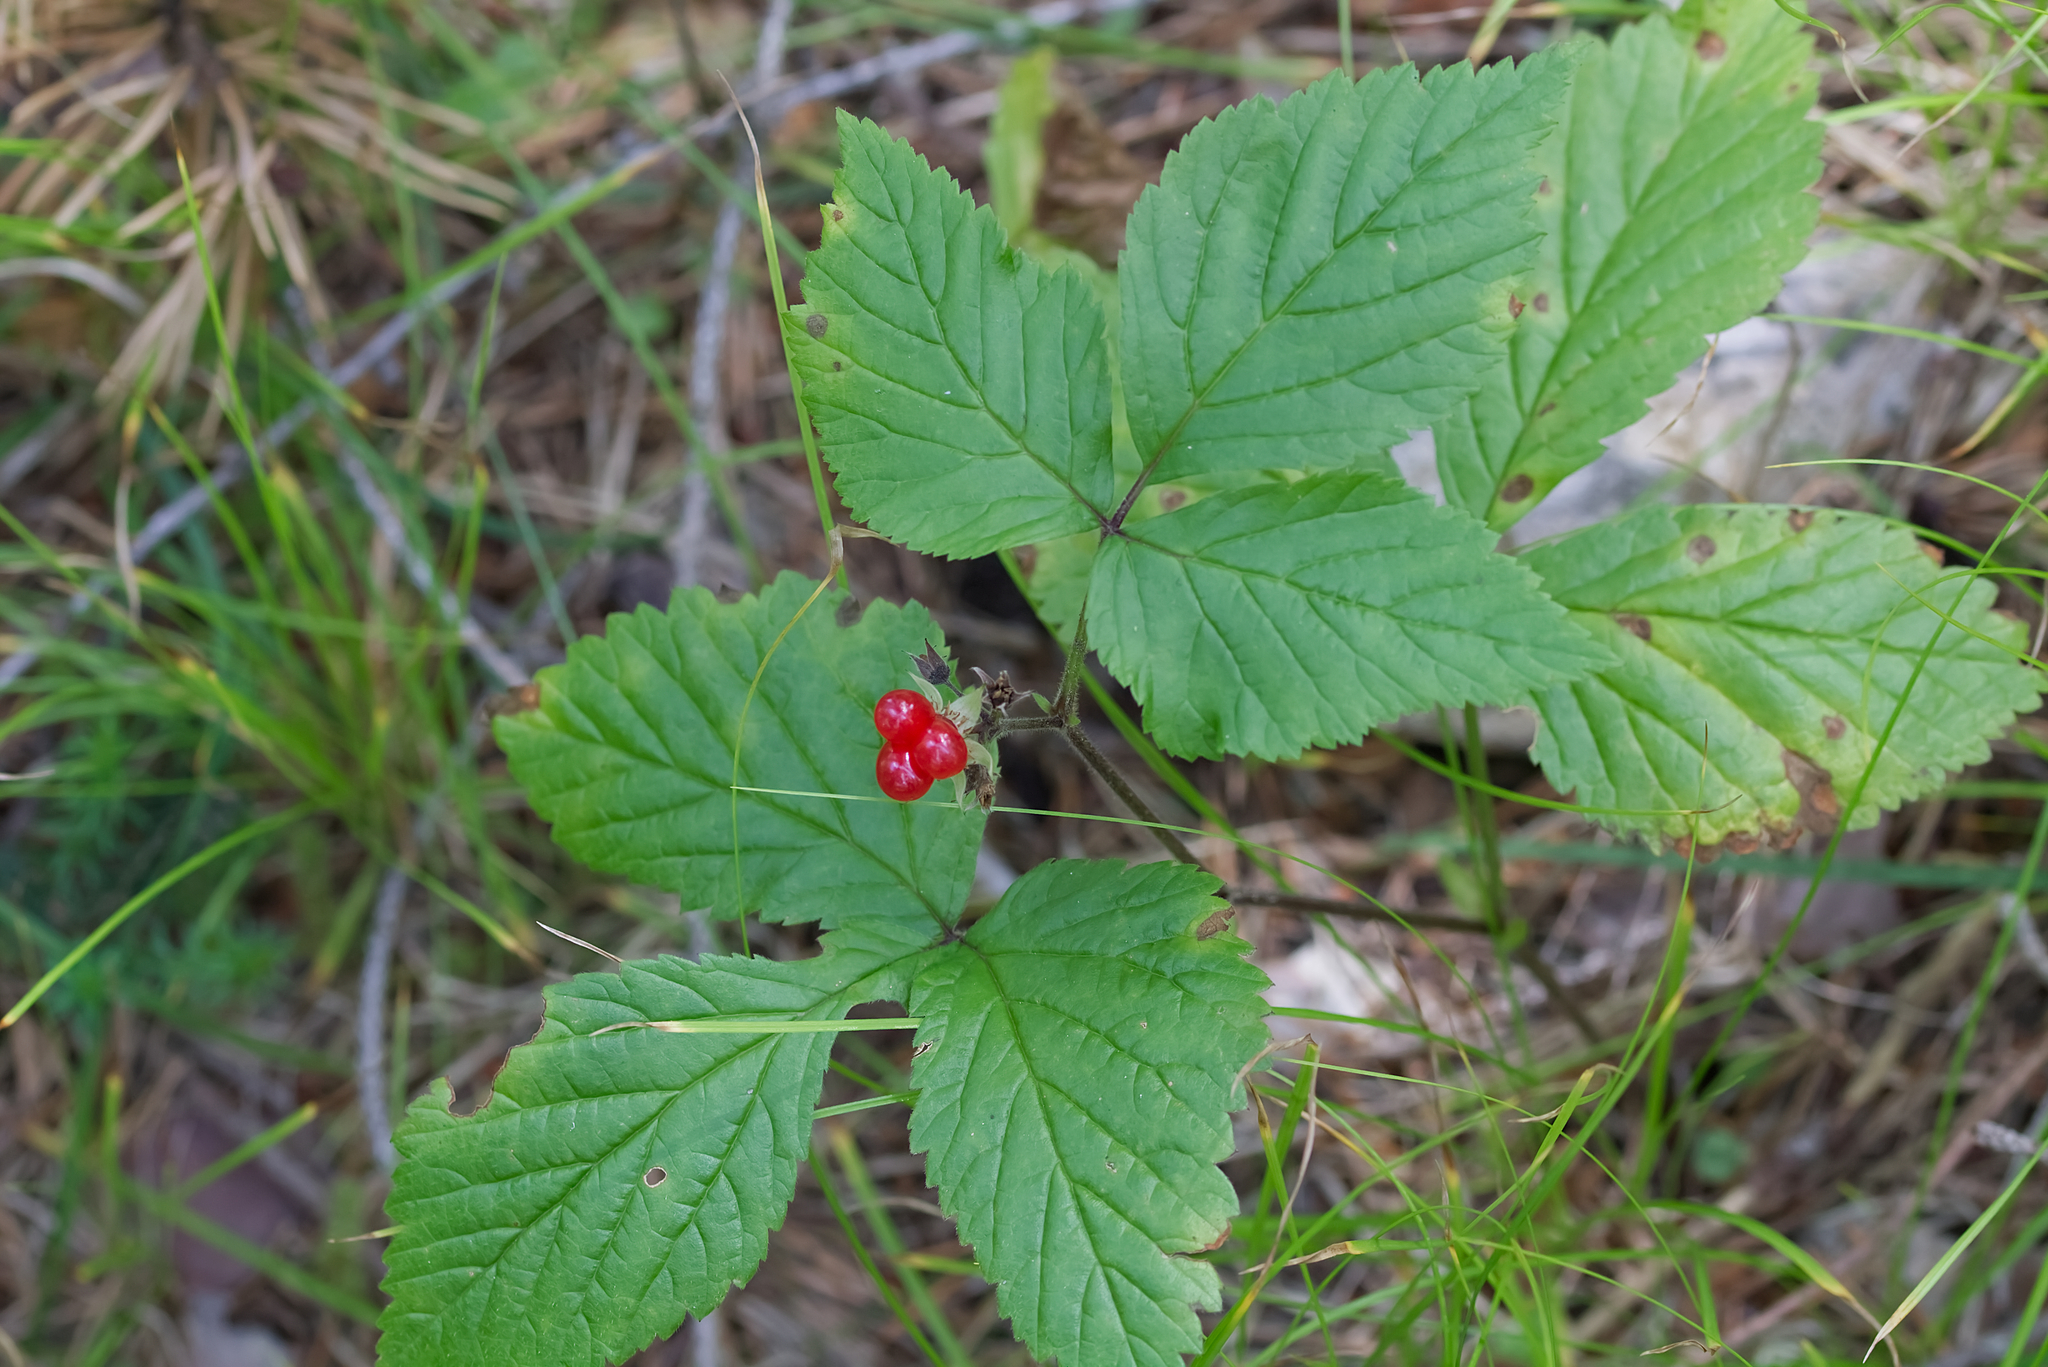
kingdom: Plantae
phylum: Tracheophyta
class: Magnoliopsida
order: Rosales
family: Rosaceae
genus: Rubus
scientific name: Rubus saxatilis
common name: Stone bramble
